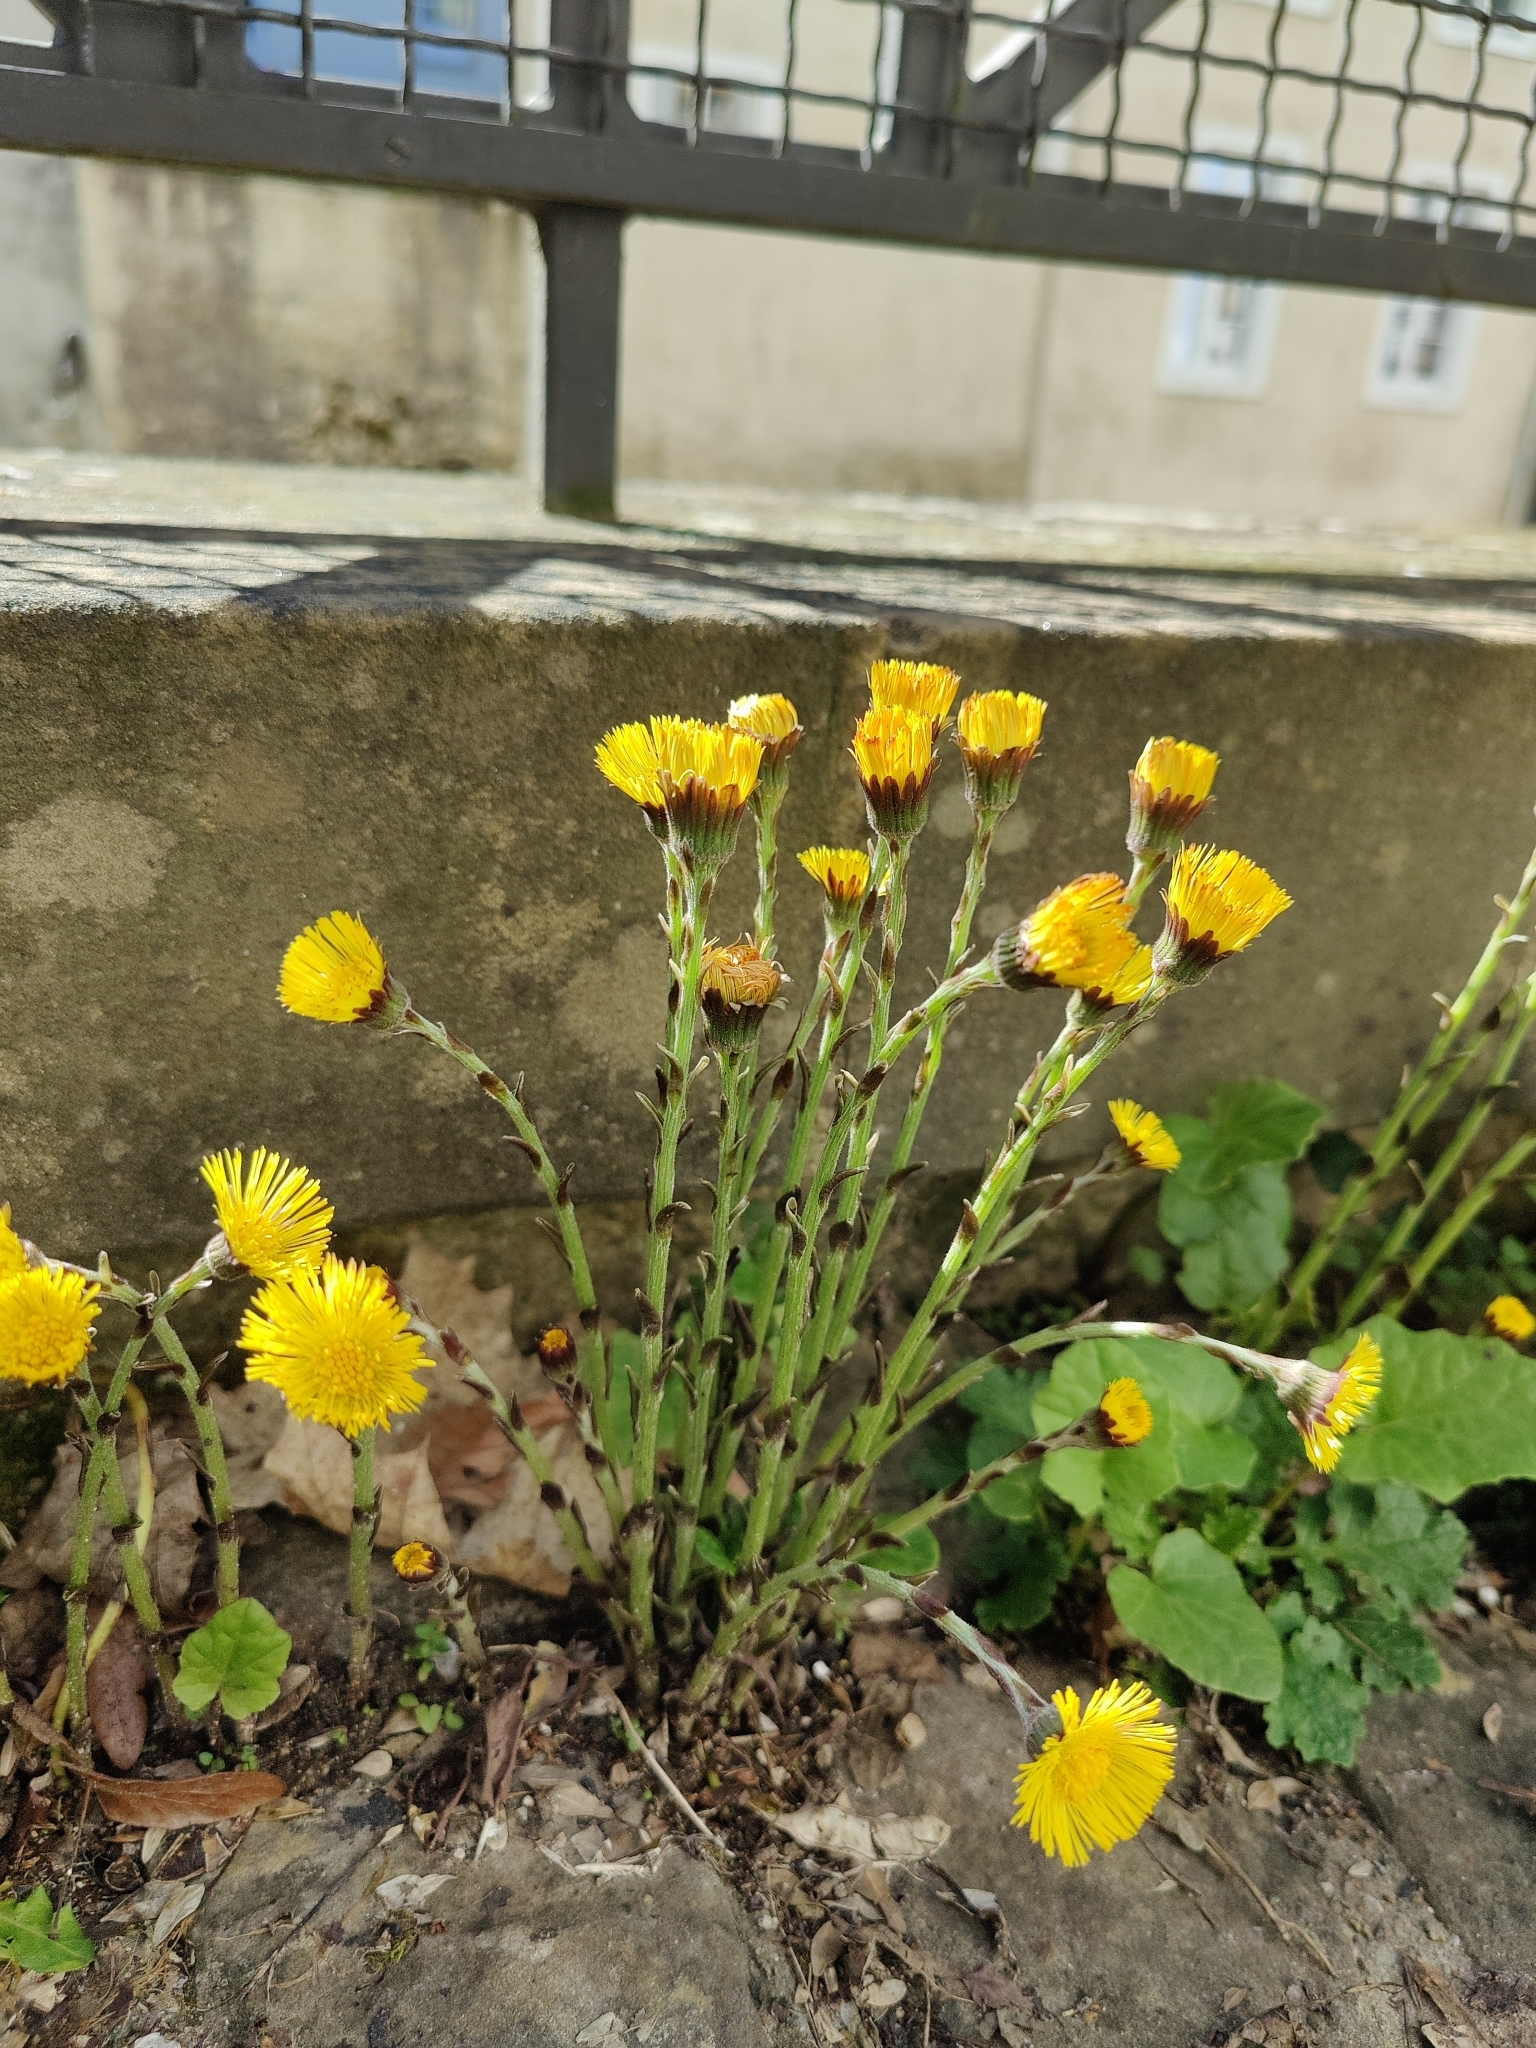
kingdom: Plantae
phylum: Tracheophyta
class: Magnoliopsida
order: Asterales
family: Asteraceae
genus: Tussilago
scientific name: Tussilago farfara
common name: Coltsfoot
